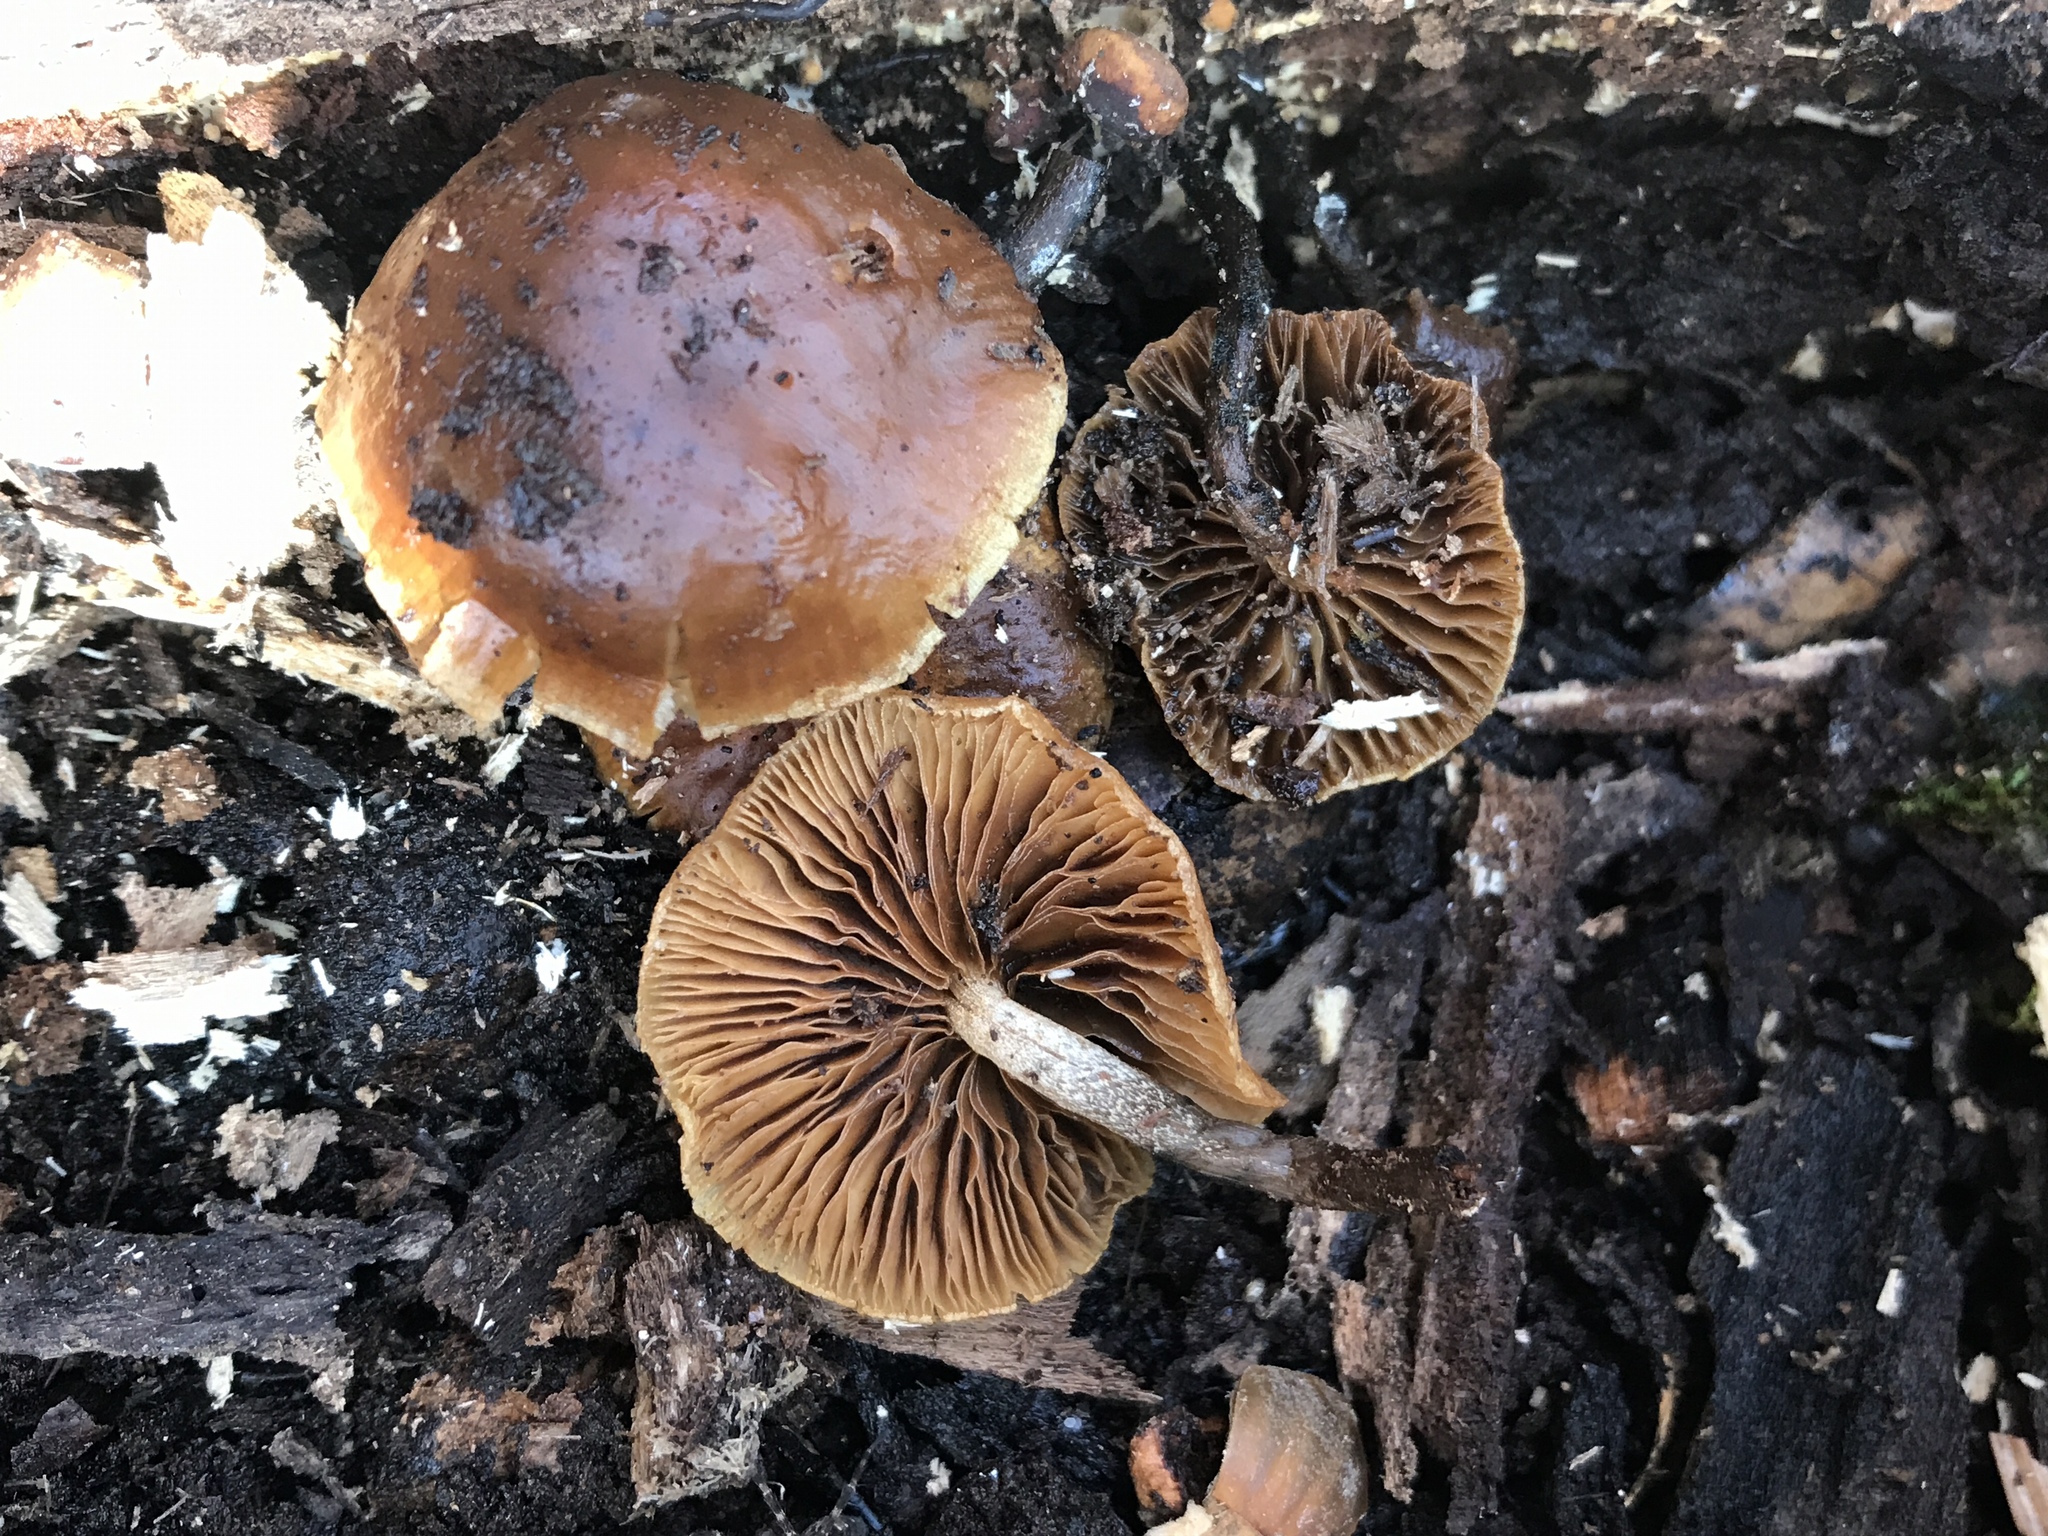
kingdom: Fungi
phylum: Basidiomycota
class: Agaricomycetes
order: Agaricales
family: Hymenogastraceae
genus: Galerina
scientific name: Galerina marginata
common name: Funeral bell
